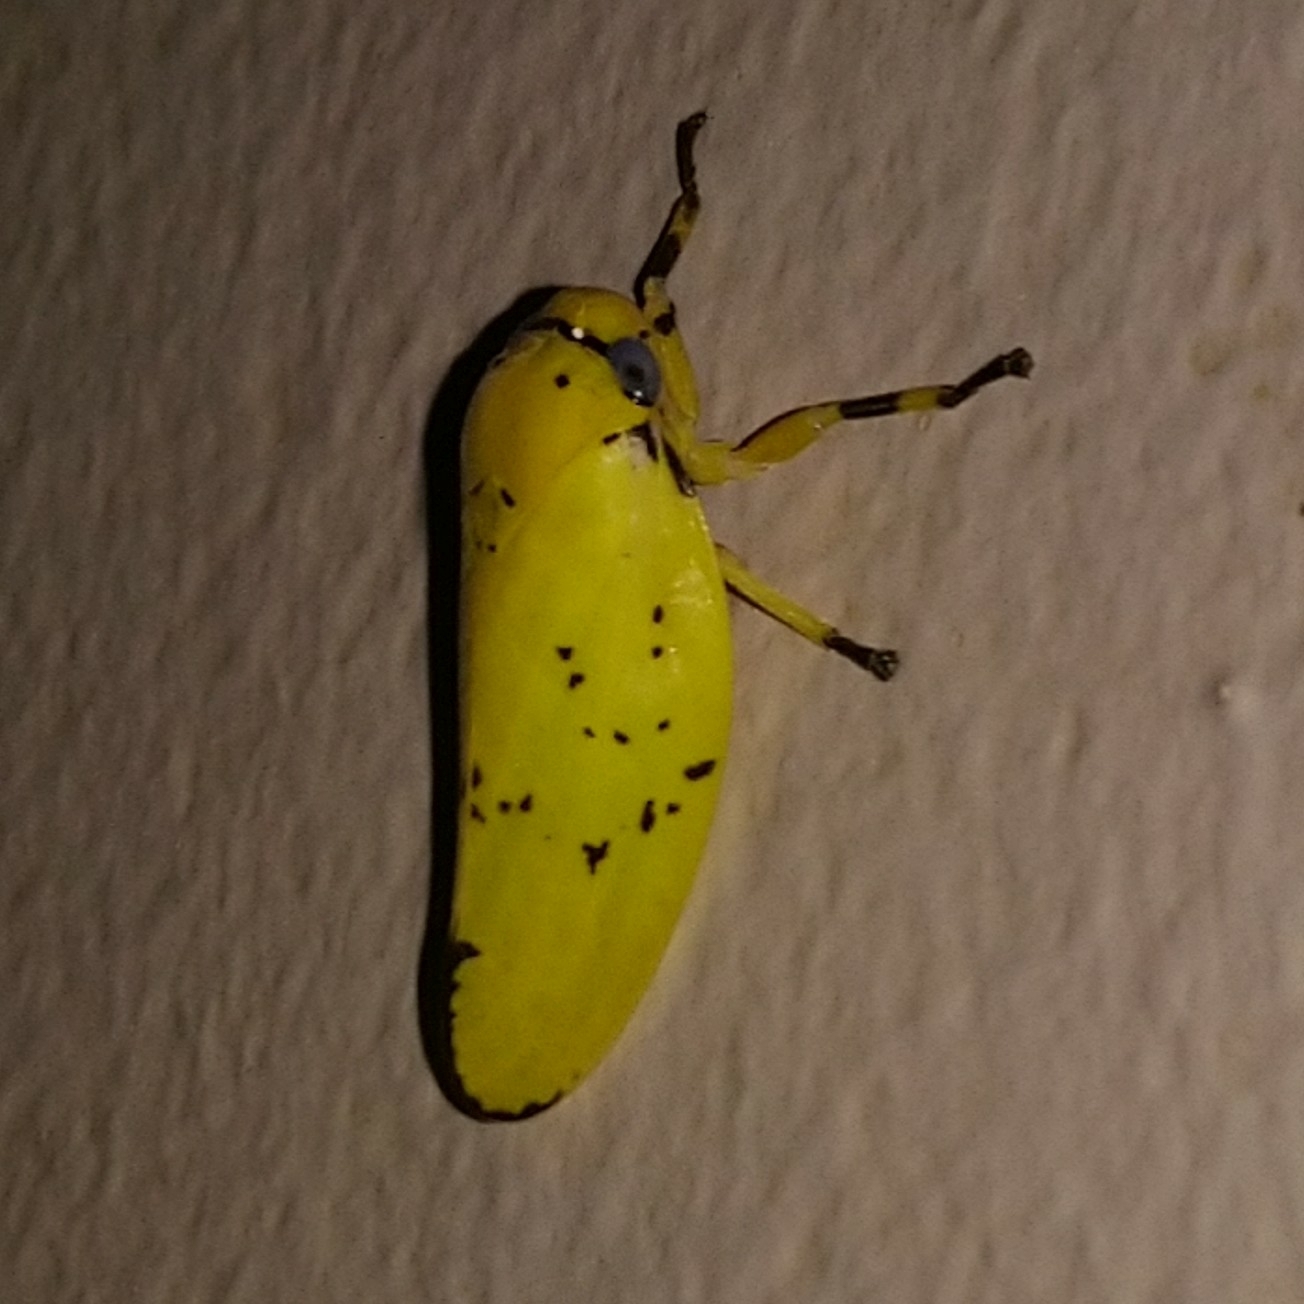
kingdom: Animalia
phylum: Arthropoda
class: Insecta
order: Hemiptera
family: Aphrophoridae
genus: Ptyelus
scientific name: Ptyelus flavescens
